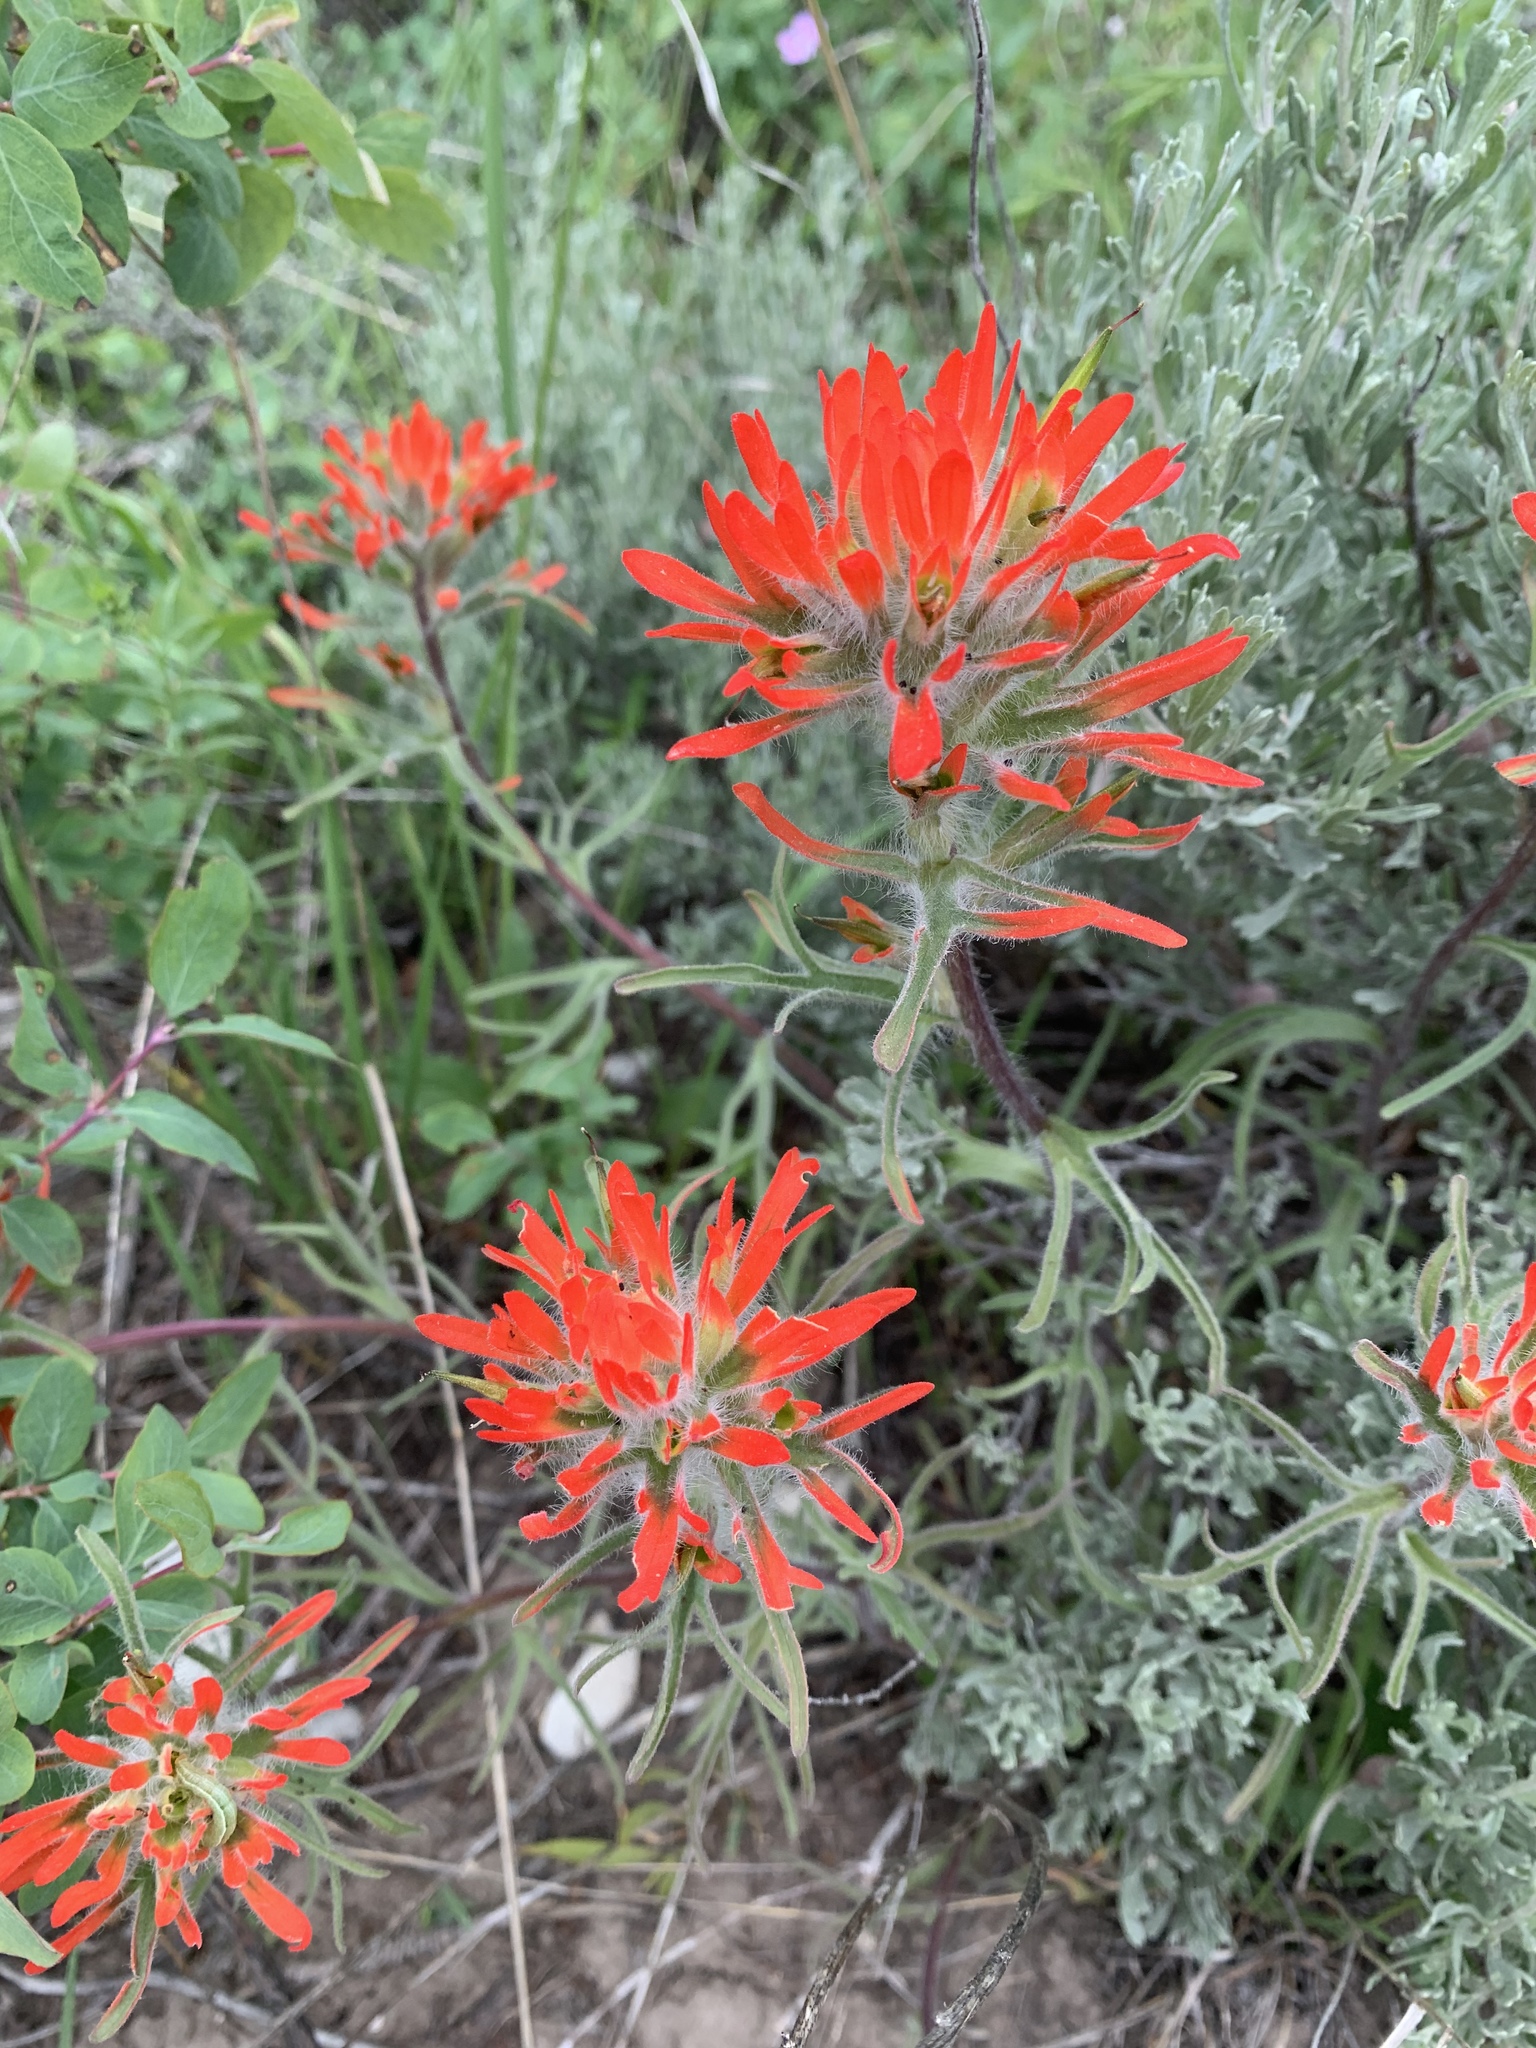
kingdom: Plantae
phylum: Tracheophyta
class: Magnoliopsida
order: Lamiales
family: Orobanchaceae
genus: Castilleja
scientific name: Castilleja chromosa
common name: Desert paintbrush
